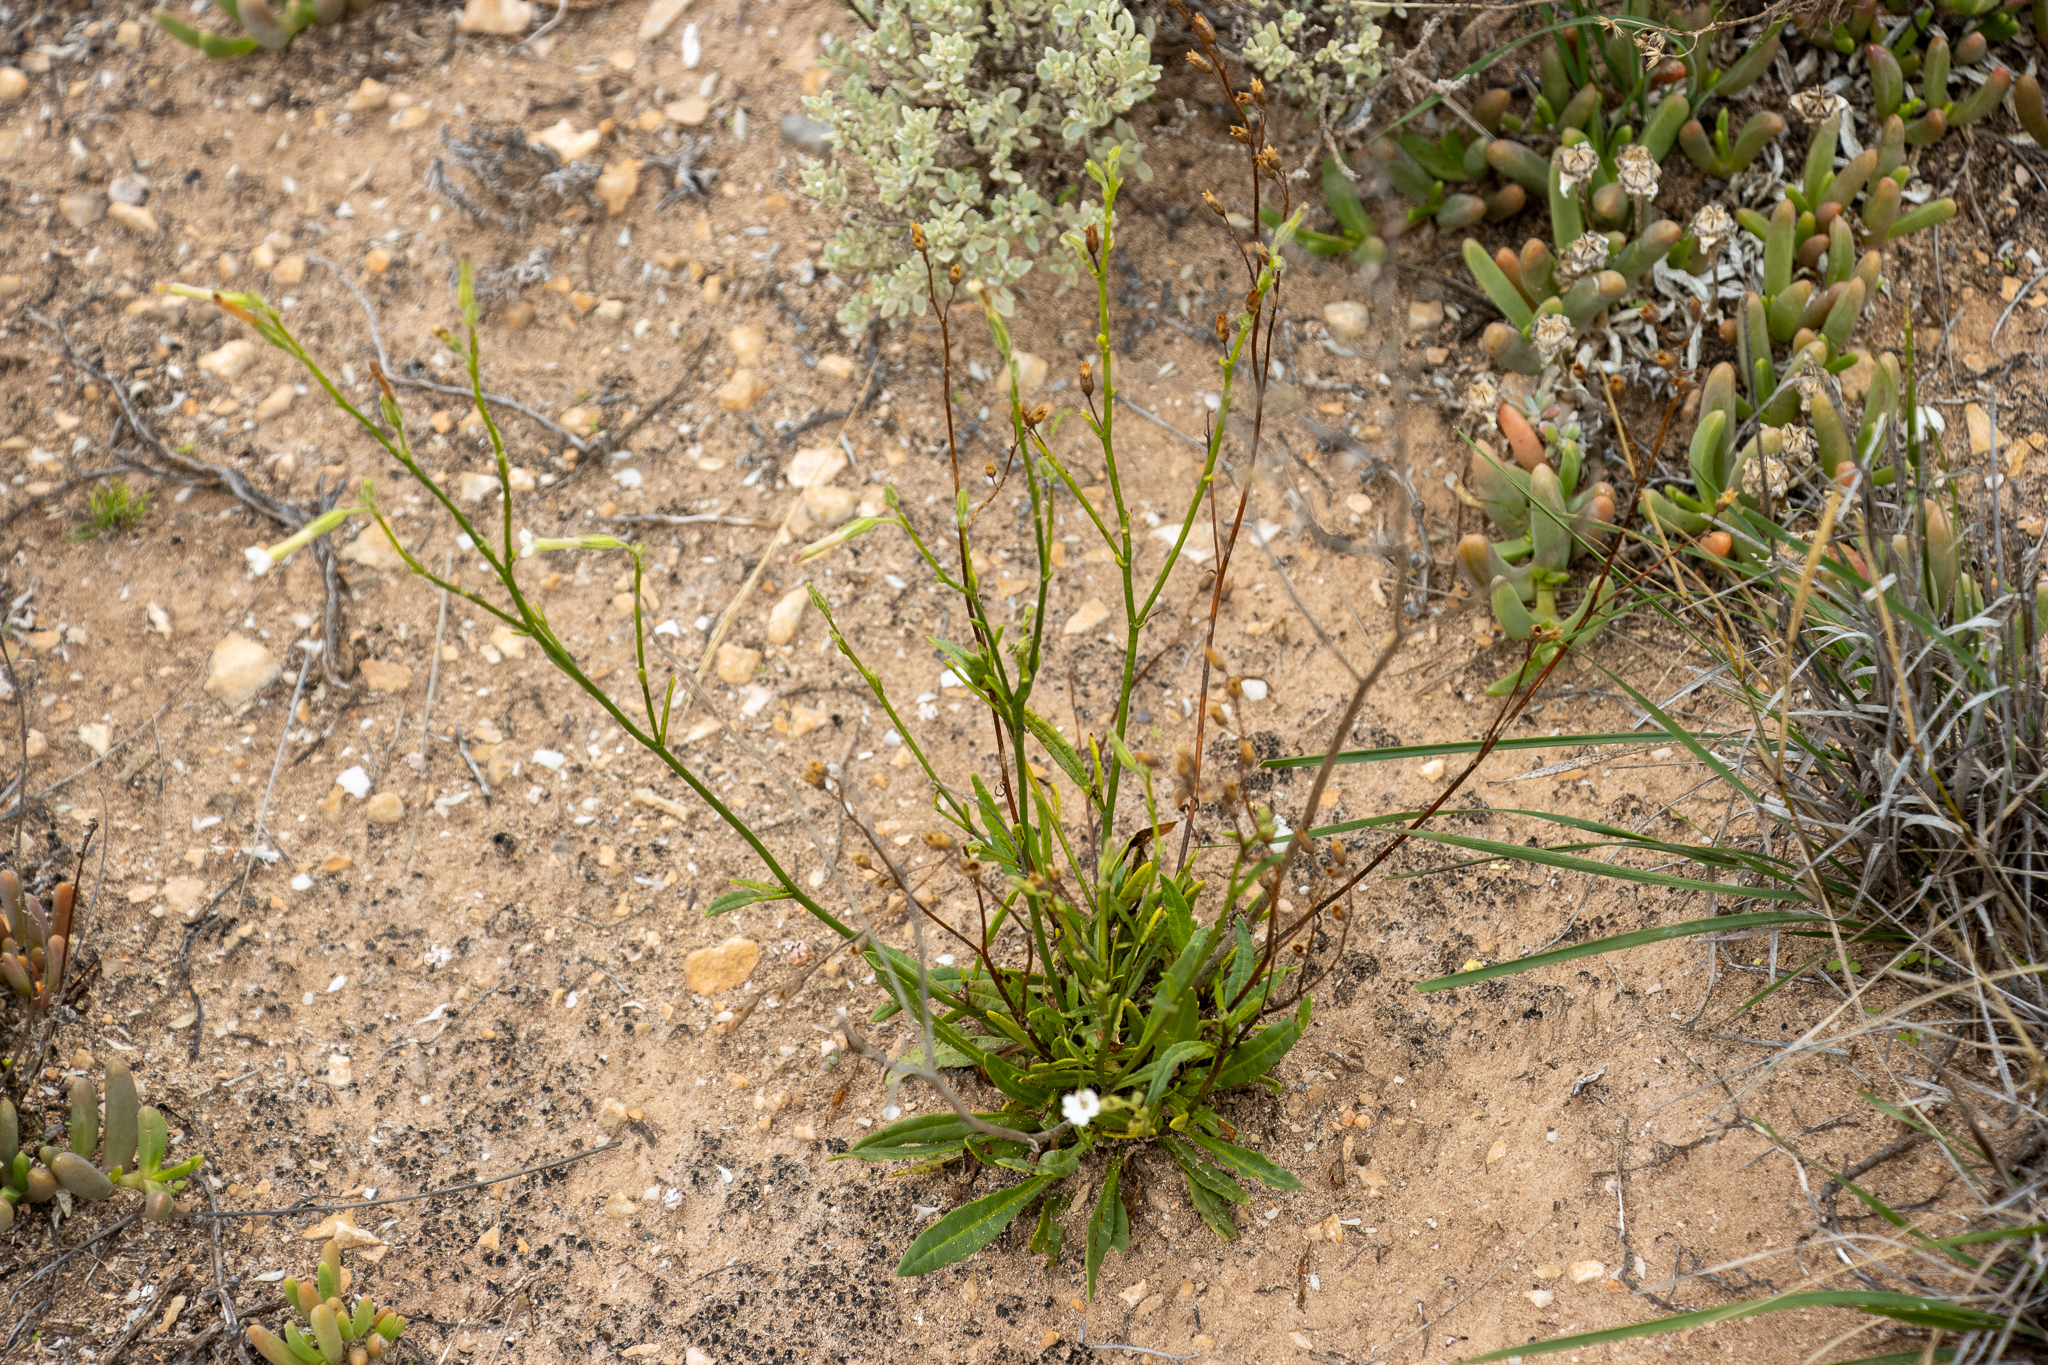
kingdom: Plantae
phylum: Tracheophyta
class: Magnoliopsida
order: Solanales
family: Solanaceae
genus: Nicotiana
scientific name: Nicotiana goodspeedii
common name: Small-flower tobacco
